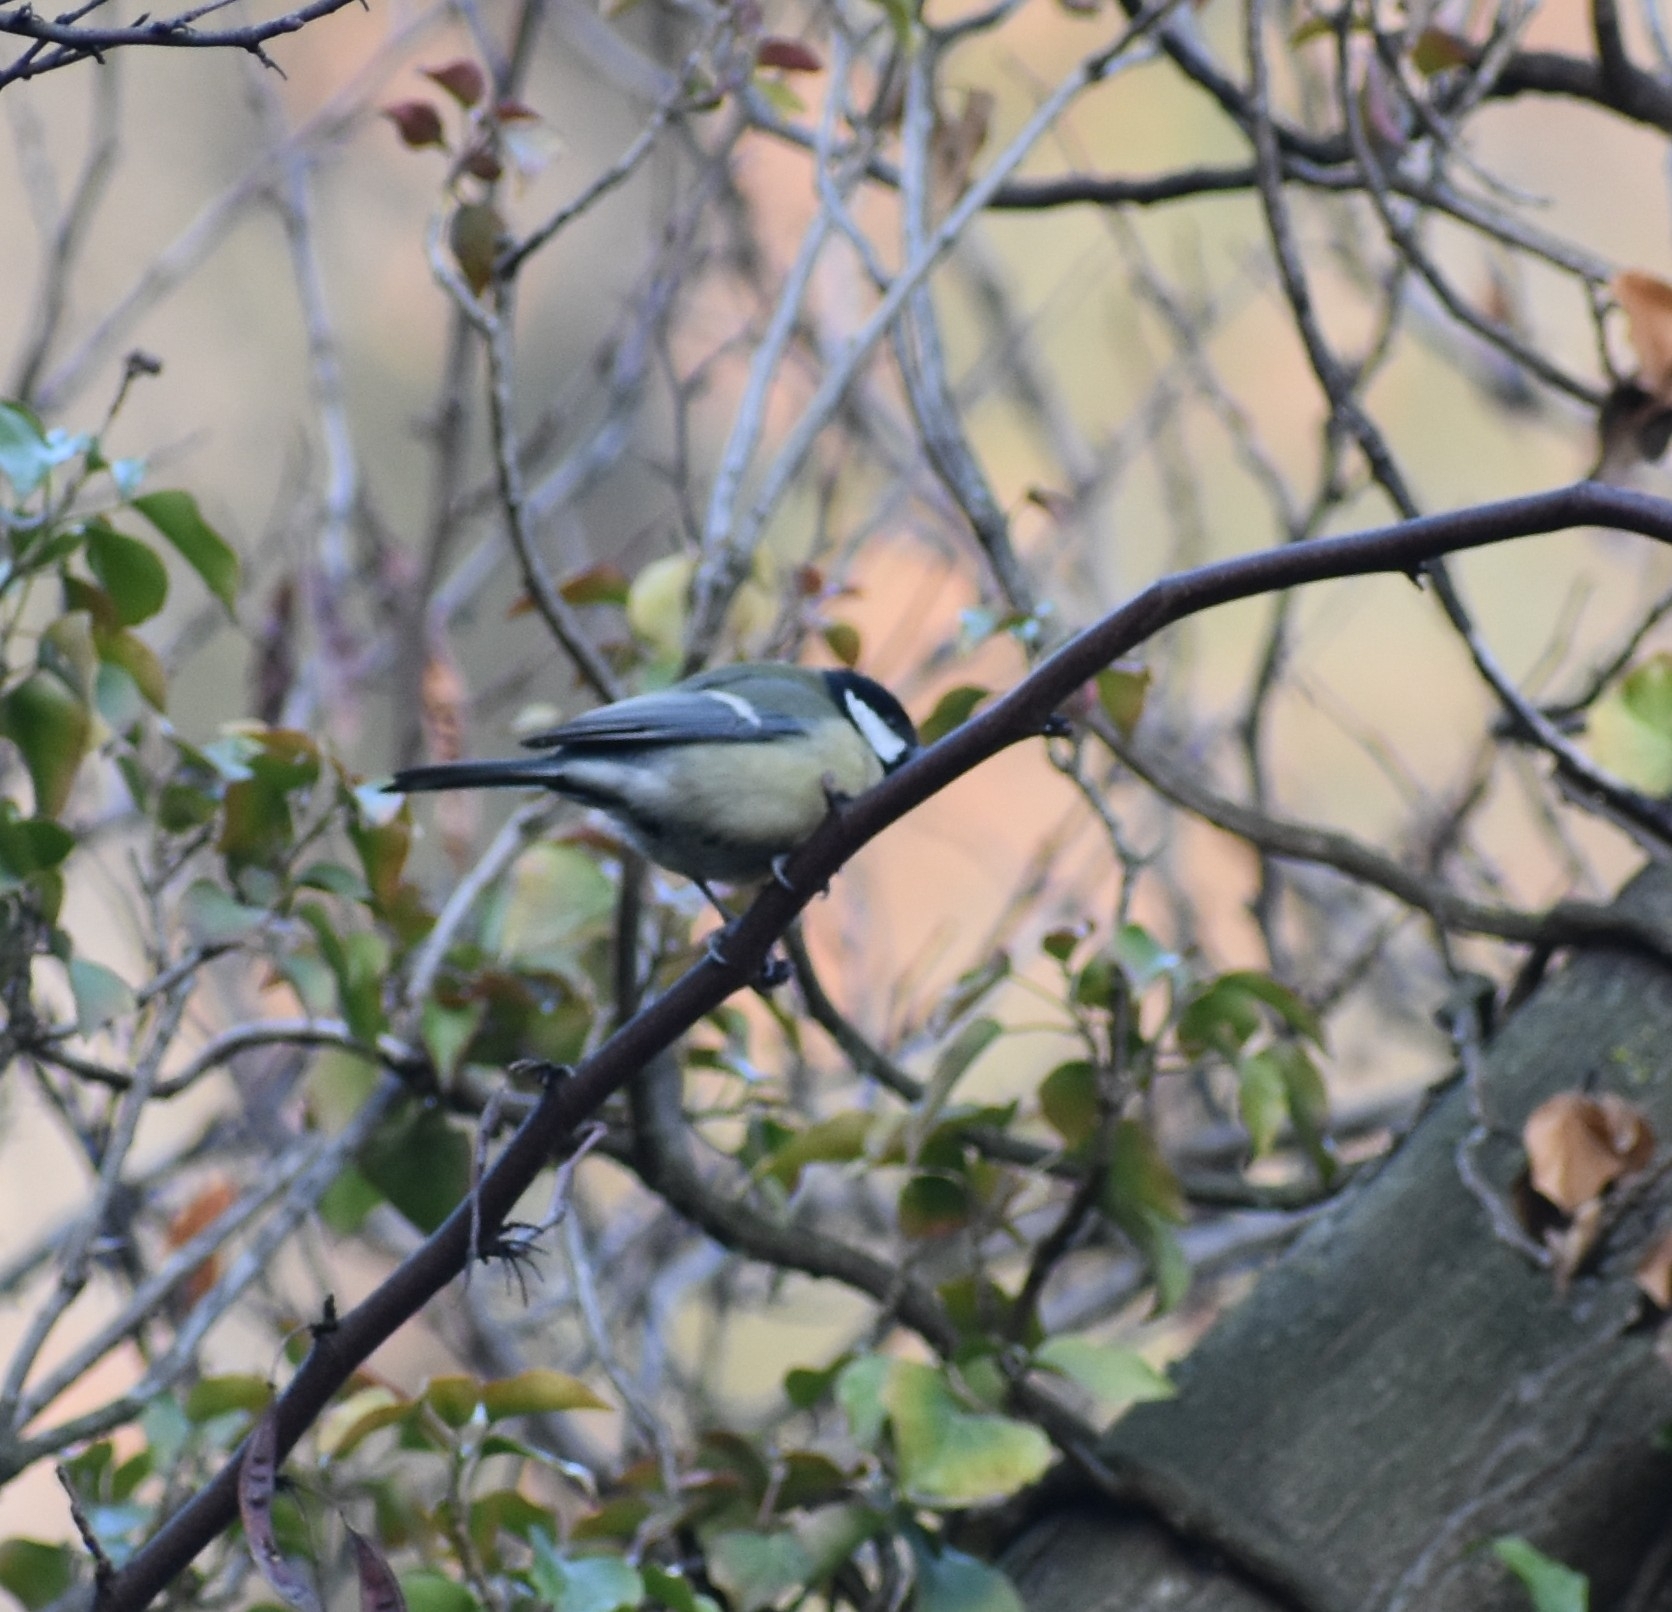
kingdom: Animalia
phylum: Chordata
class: Aves
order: Passeriformes
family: Paridae
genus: Parus
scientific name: Parus major
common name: Great tit
